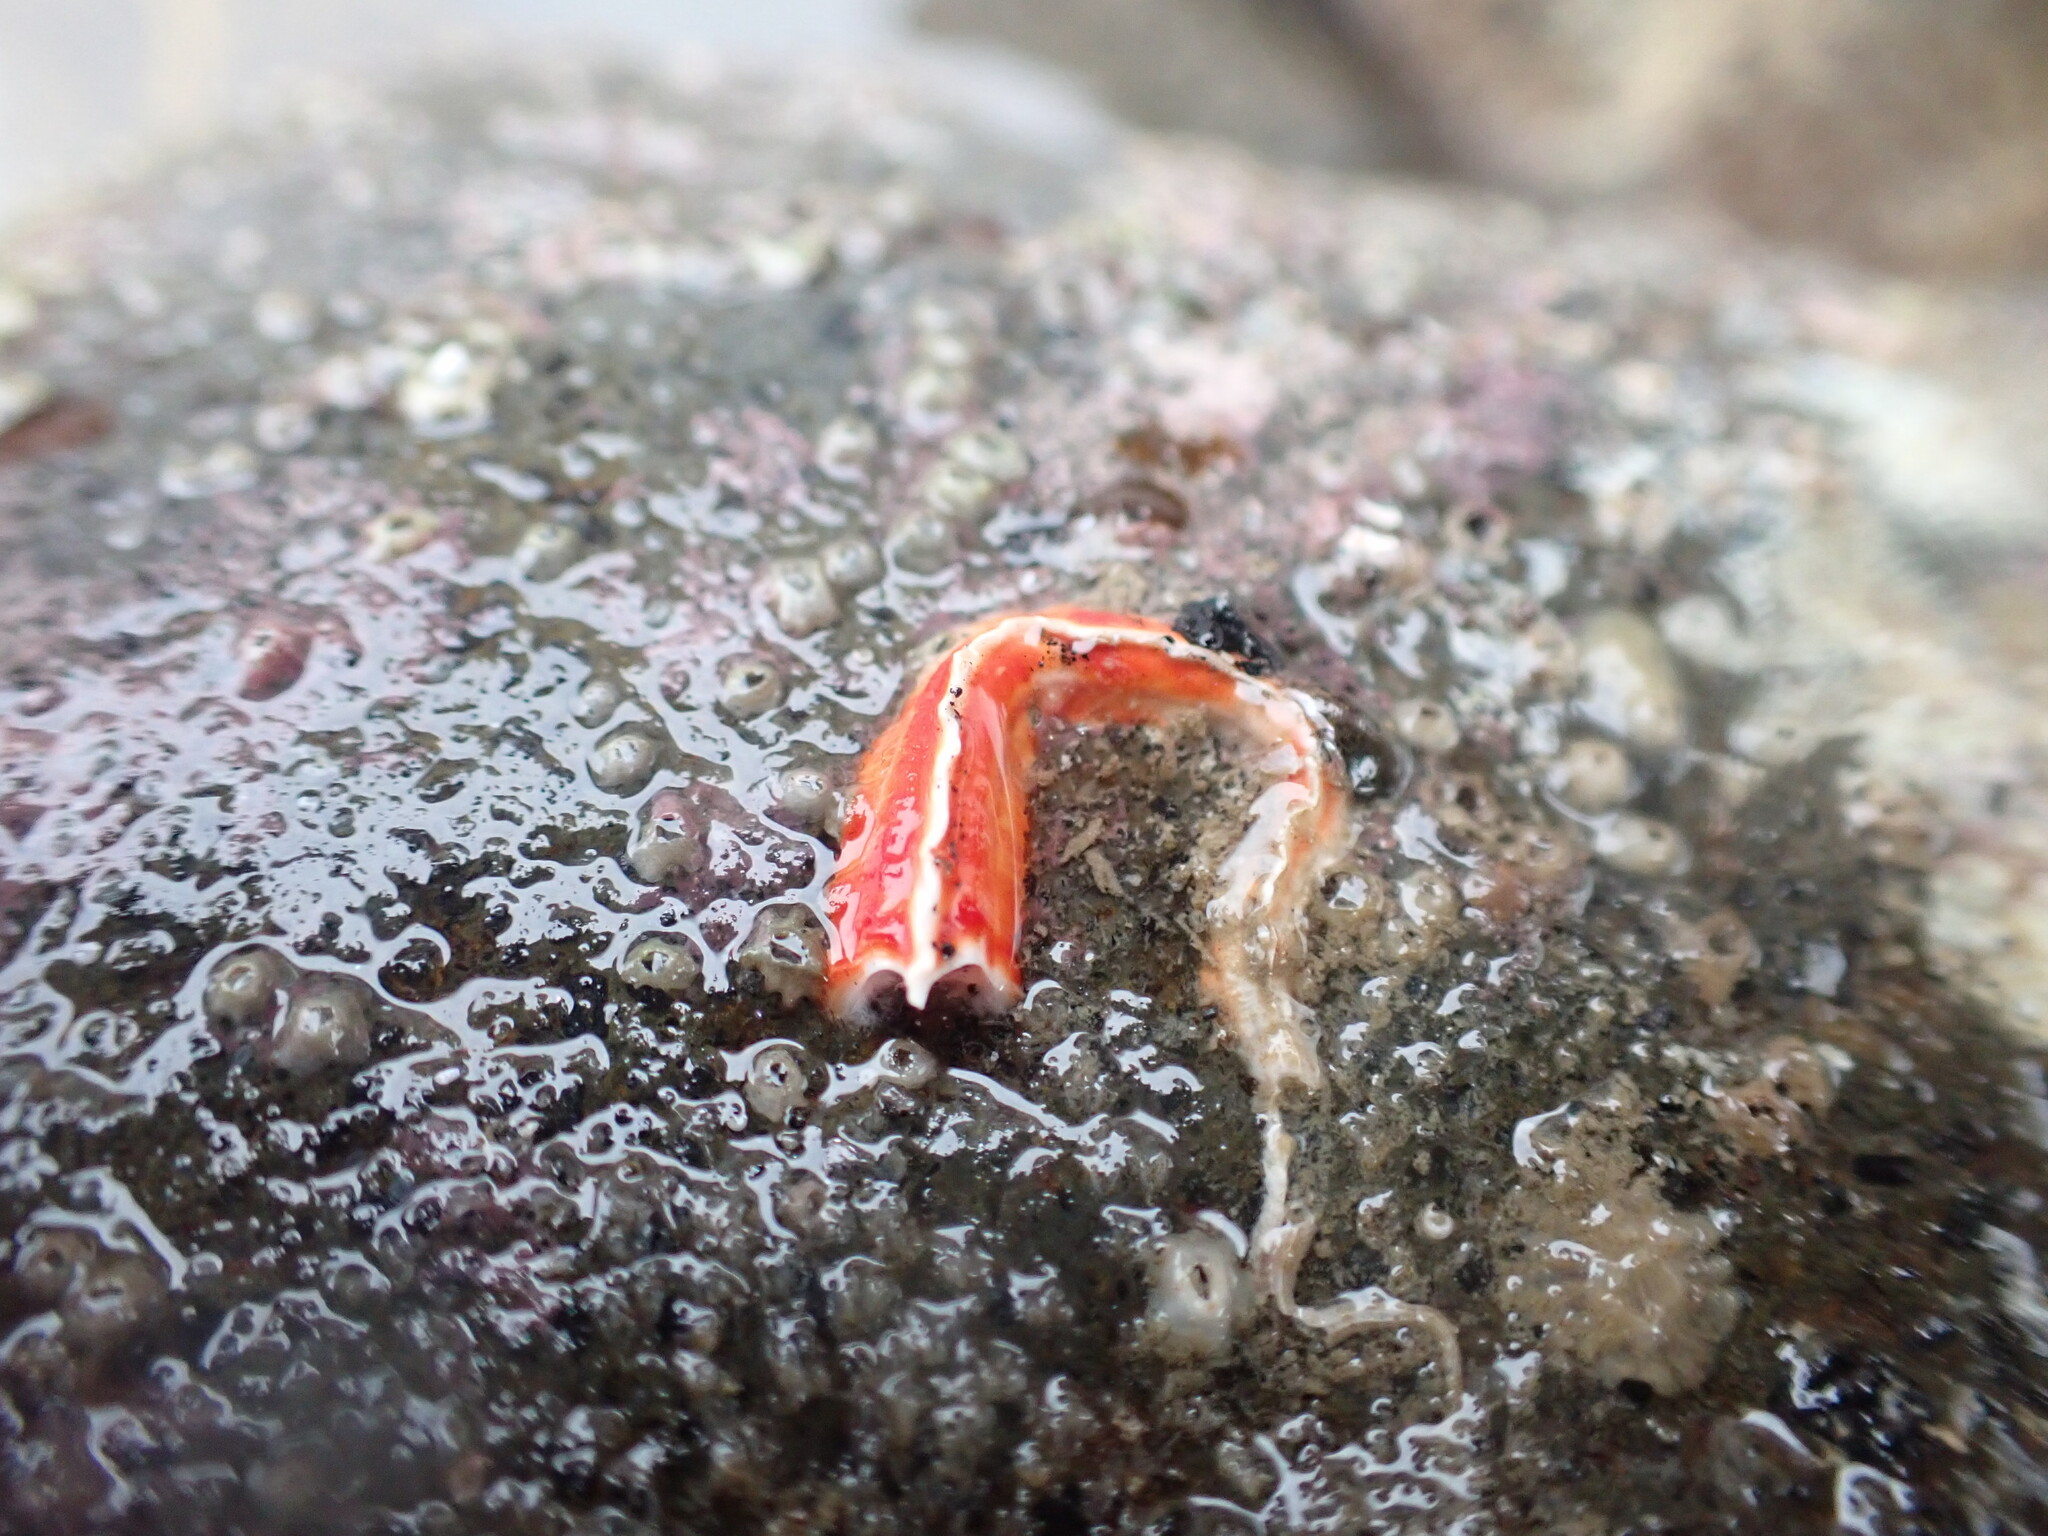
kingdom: Animalia
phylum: Annelida
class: Polychaeta
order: Sabellida
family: Serpulidae
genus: Galeolaria
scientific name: Galeolaria hystrix
